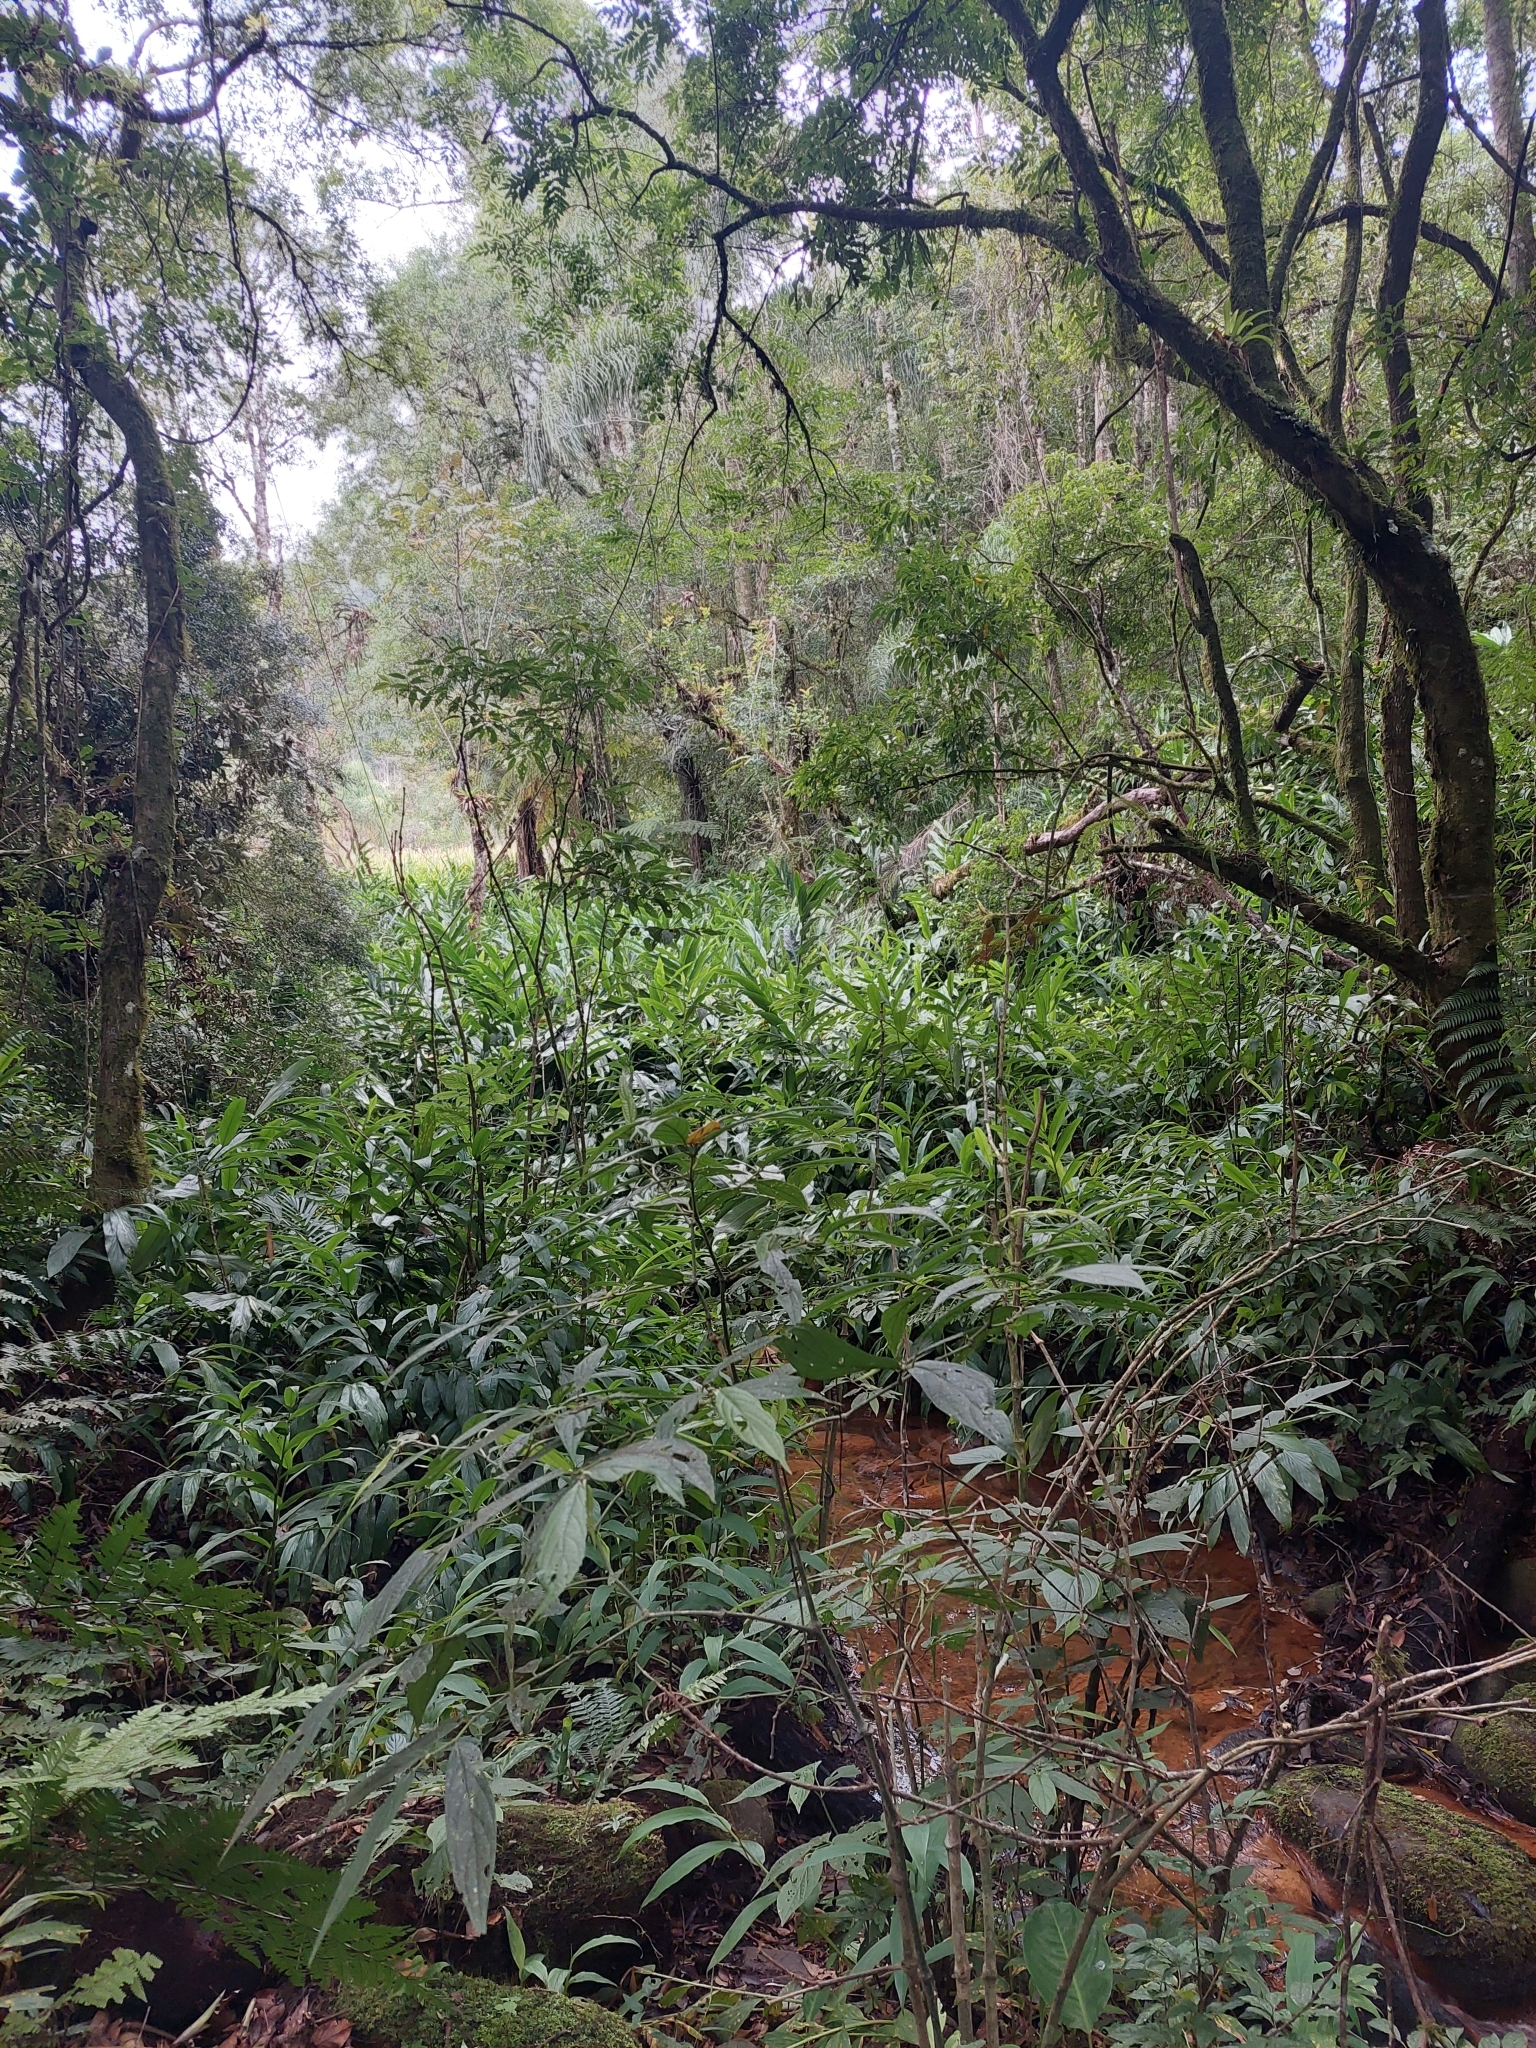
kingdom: Plantae
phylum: Tracheophyta
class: Liliopsida
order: Zingiberales
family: Zingiberaceae
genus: Hedychium
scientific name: Hedychium coronarium
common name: White garland-lily
